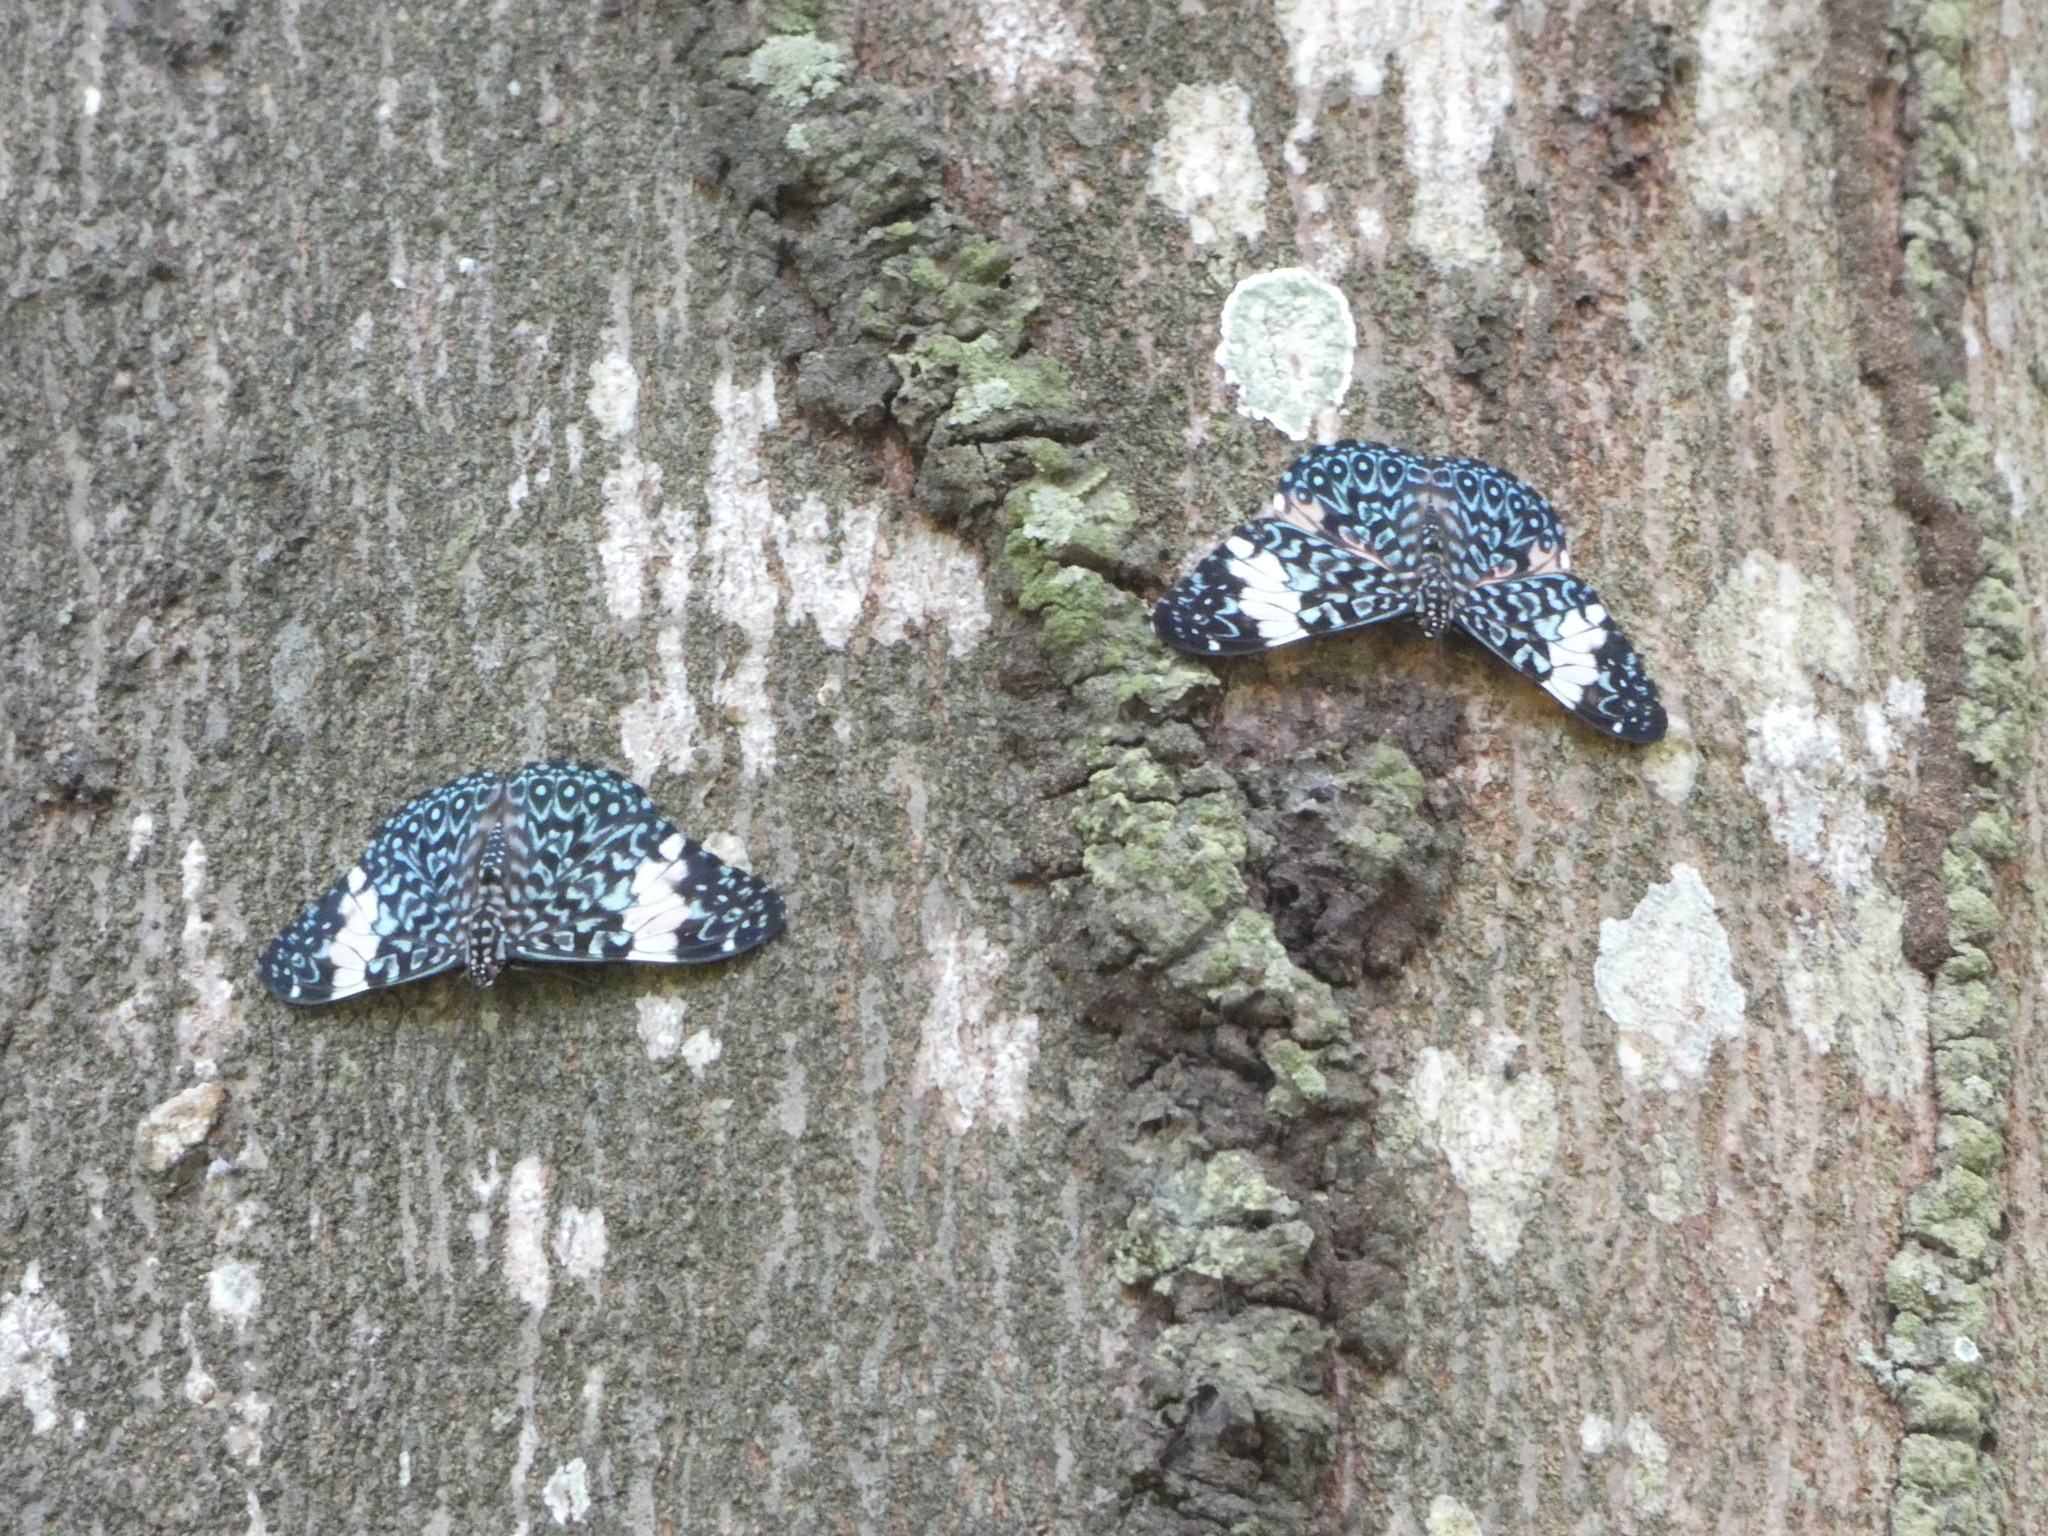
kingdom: Animalia
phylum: Arthropoda
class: Insecta
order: Lepidoptera
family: Nymphalidae
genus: Hamadryas
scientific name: Hamadryas amphinome
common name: Red cracker
